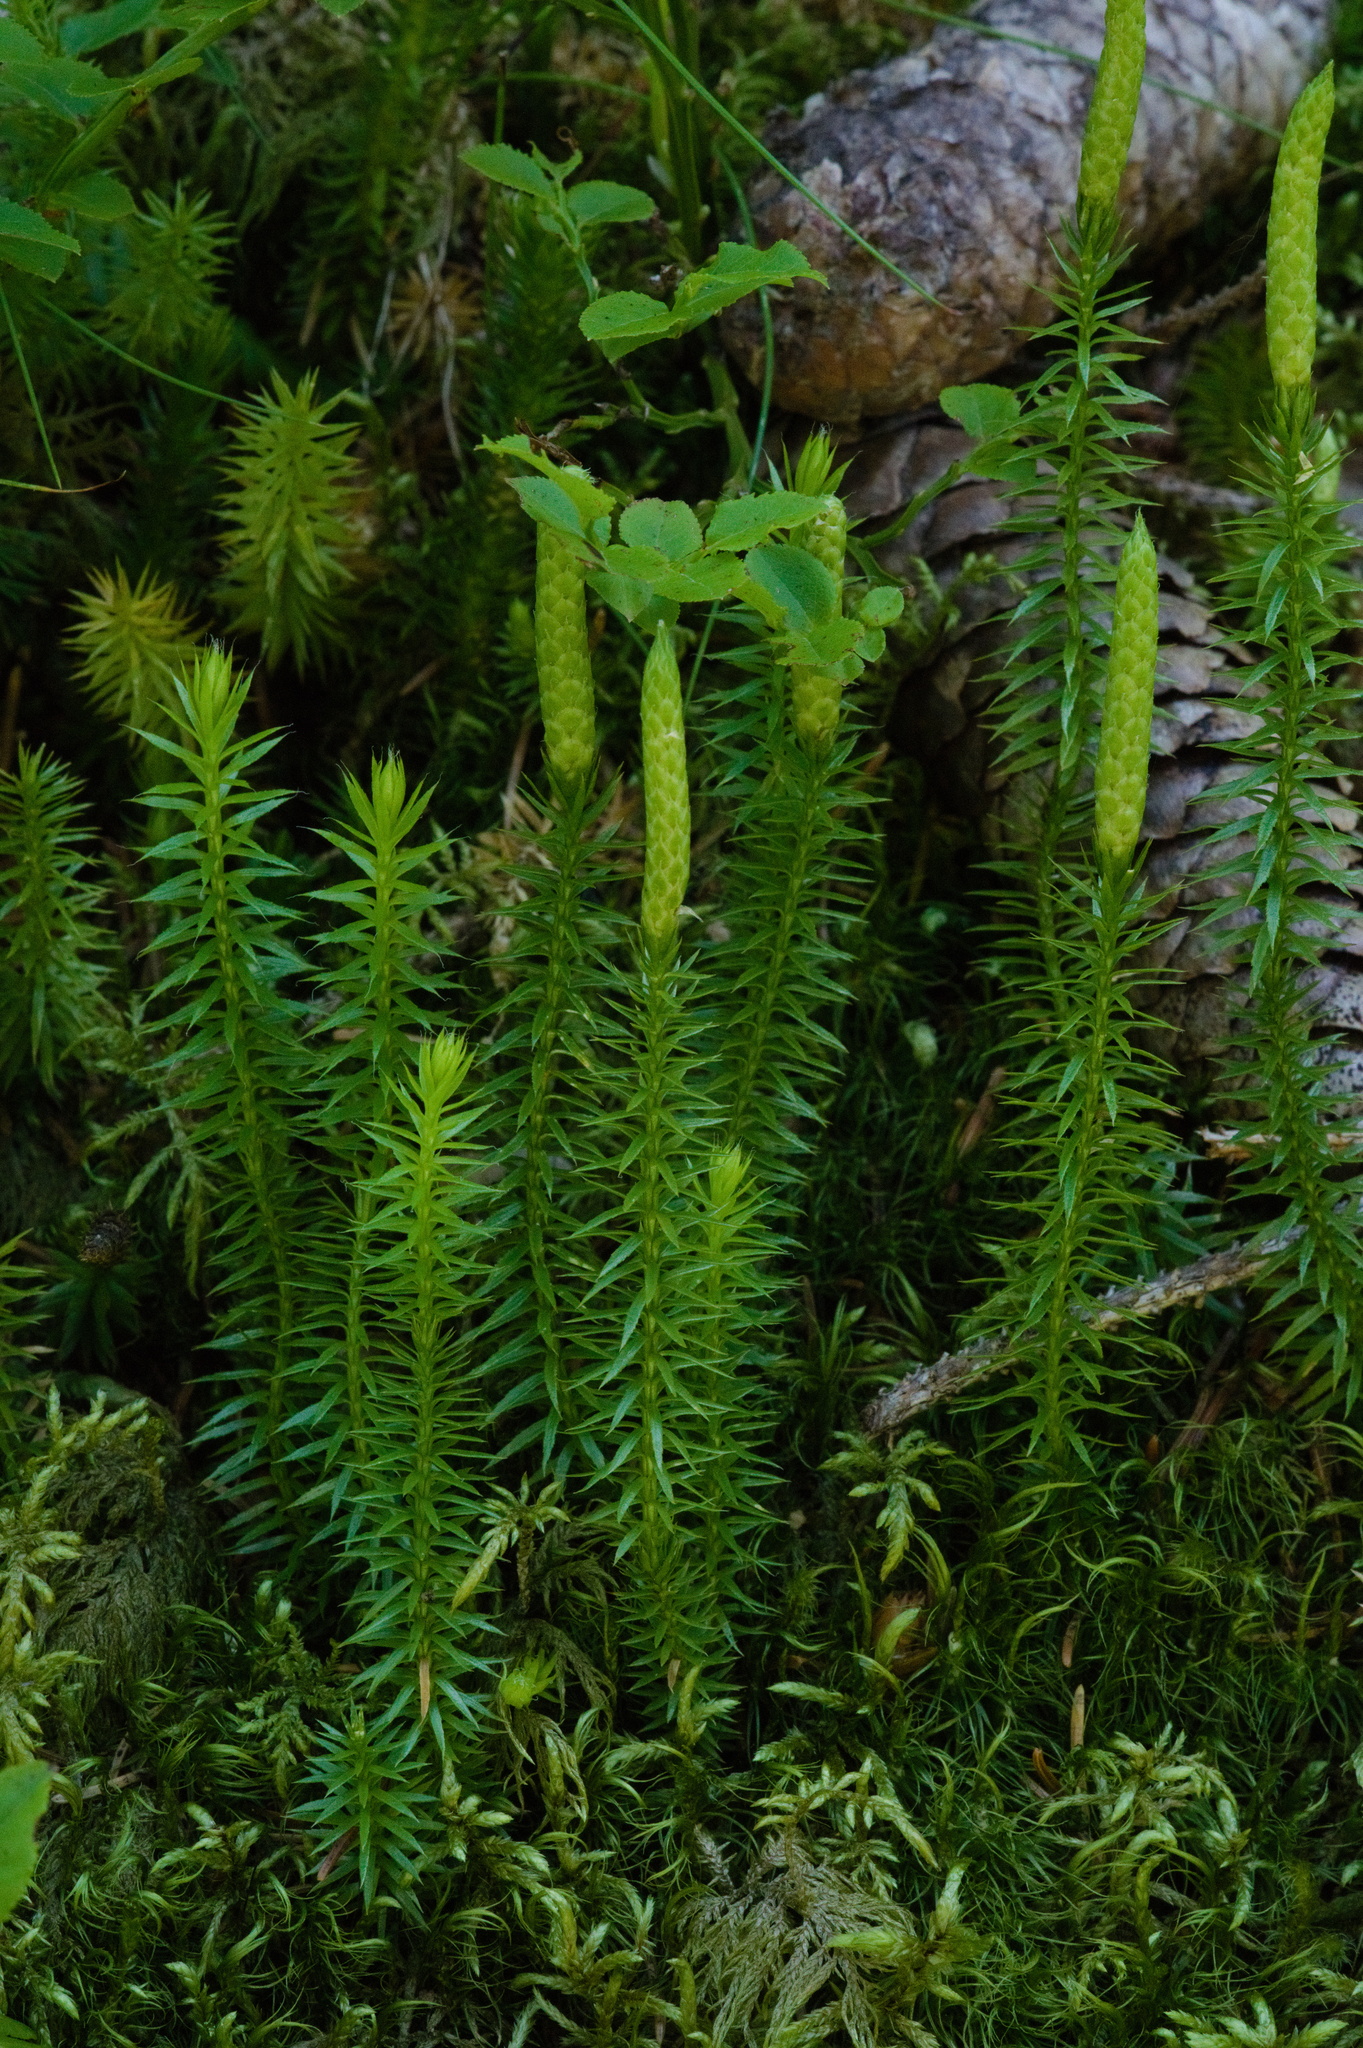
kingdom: Plantae
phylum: Tracheophyta
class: Lycopodiopsida
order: Lycopodiales
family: Lycopodiaceae
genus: Spinulum
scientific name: Spinulum annotinum
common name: Interrupted club-moss
